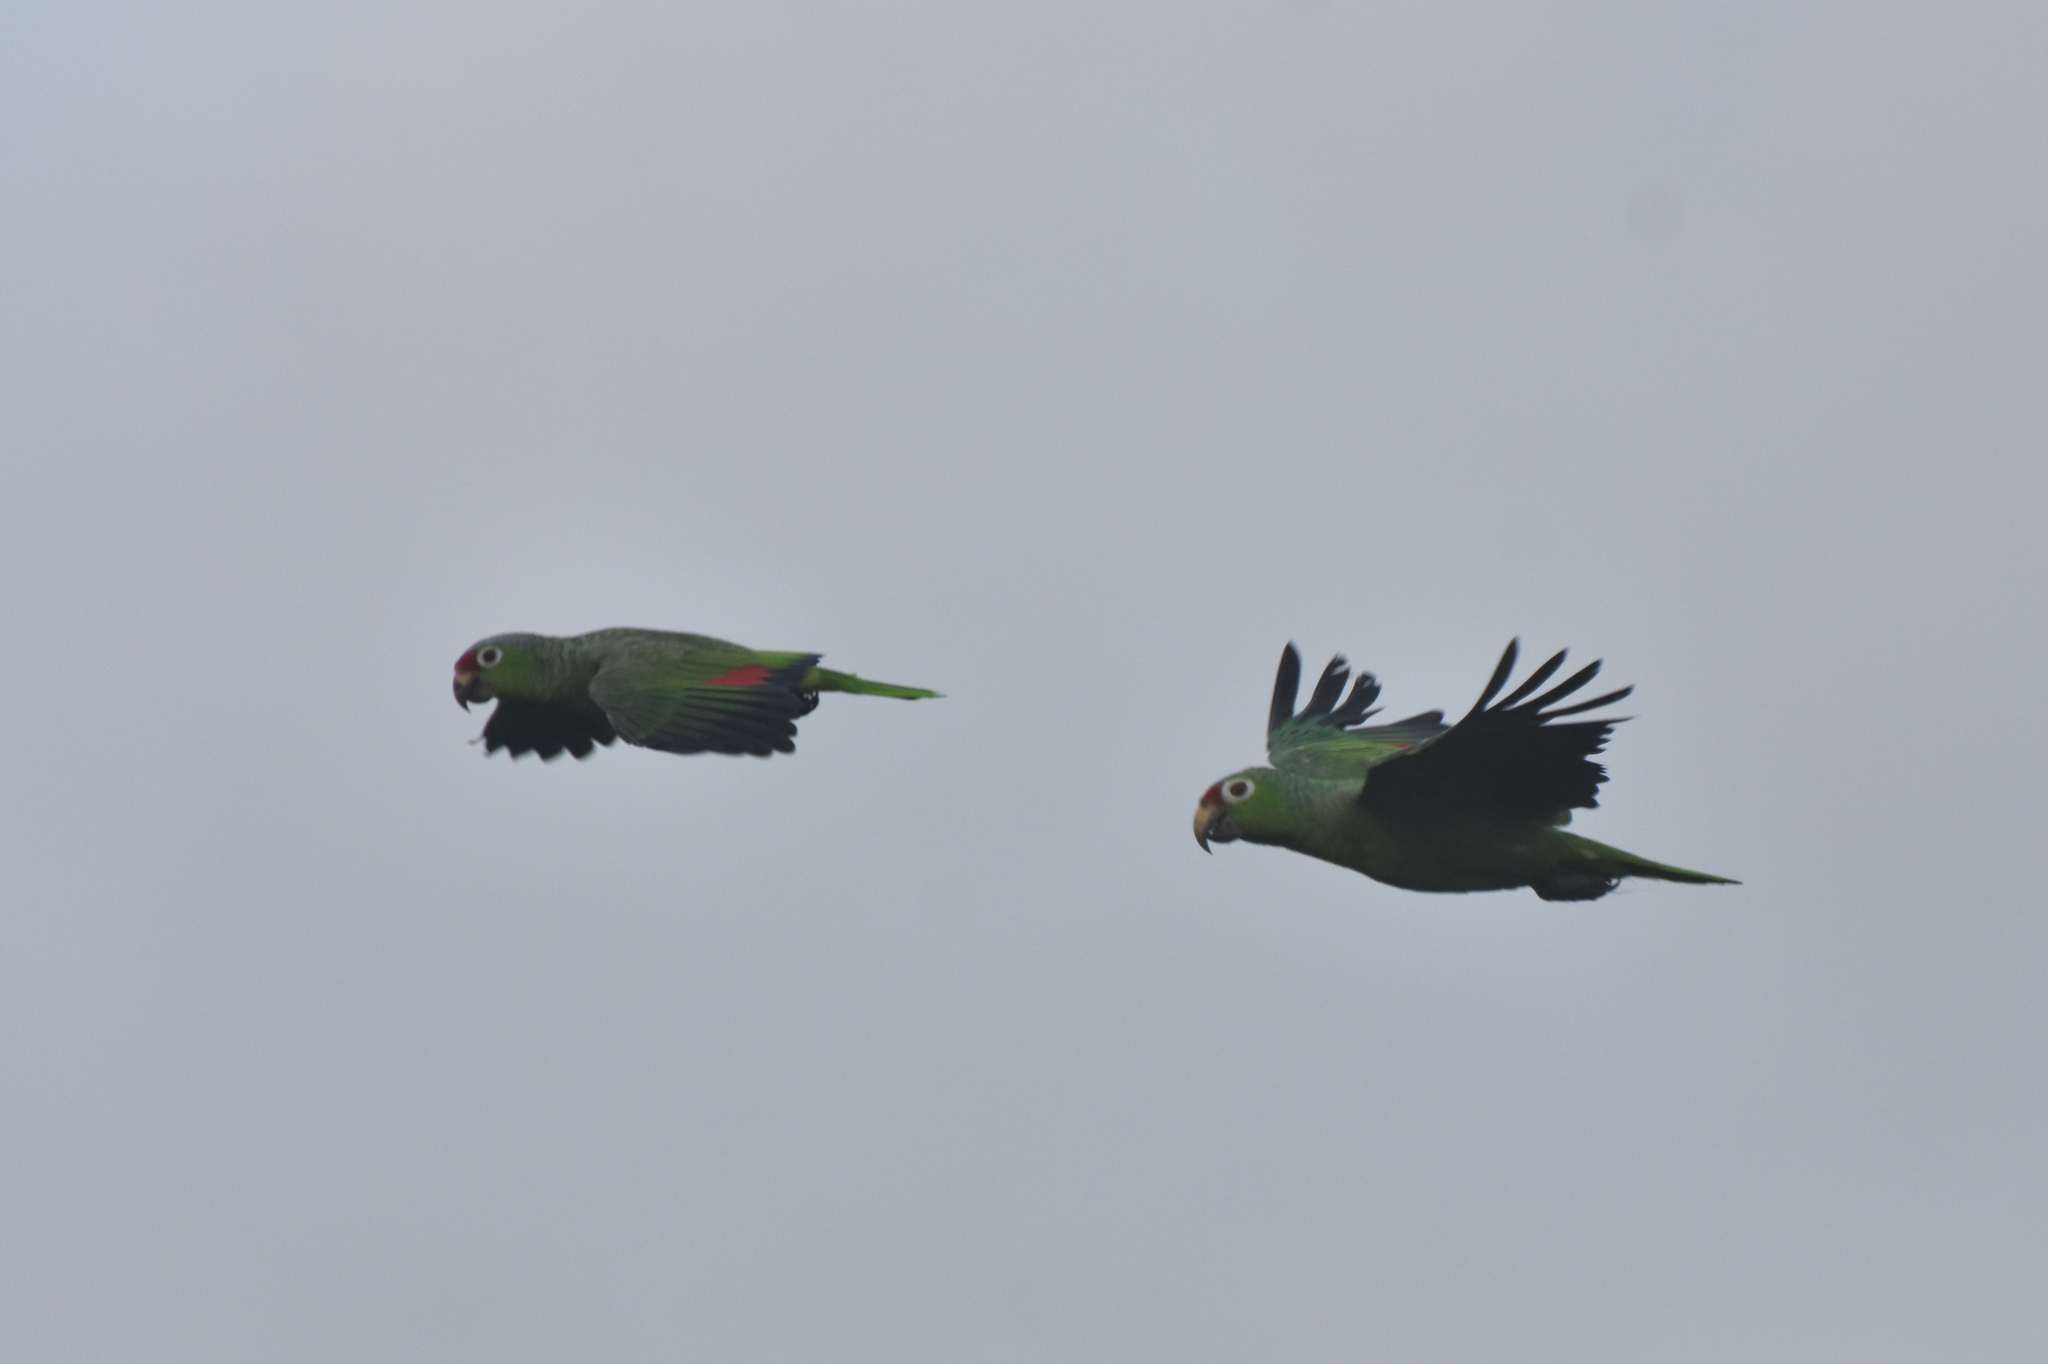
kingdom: Animalia
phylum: Chordata
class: Aves
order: Psittaciformes
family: Psittacidae
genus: Amazona
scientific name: Amazona autumnalis
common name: Red-lored amazon
